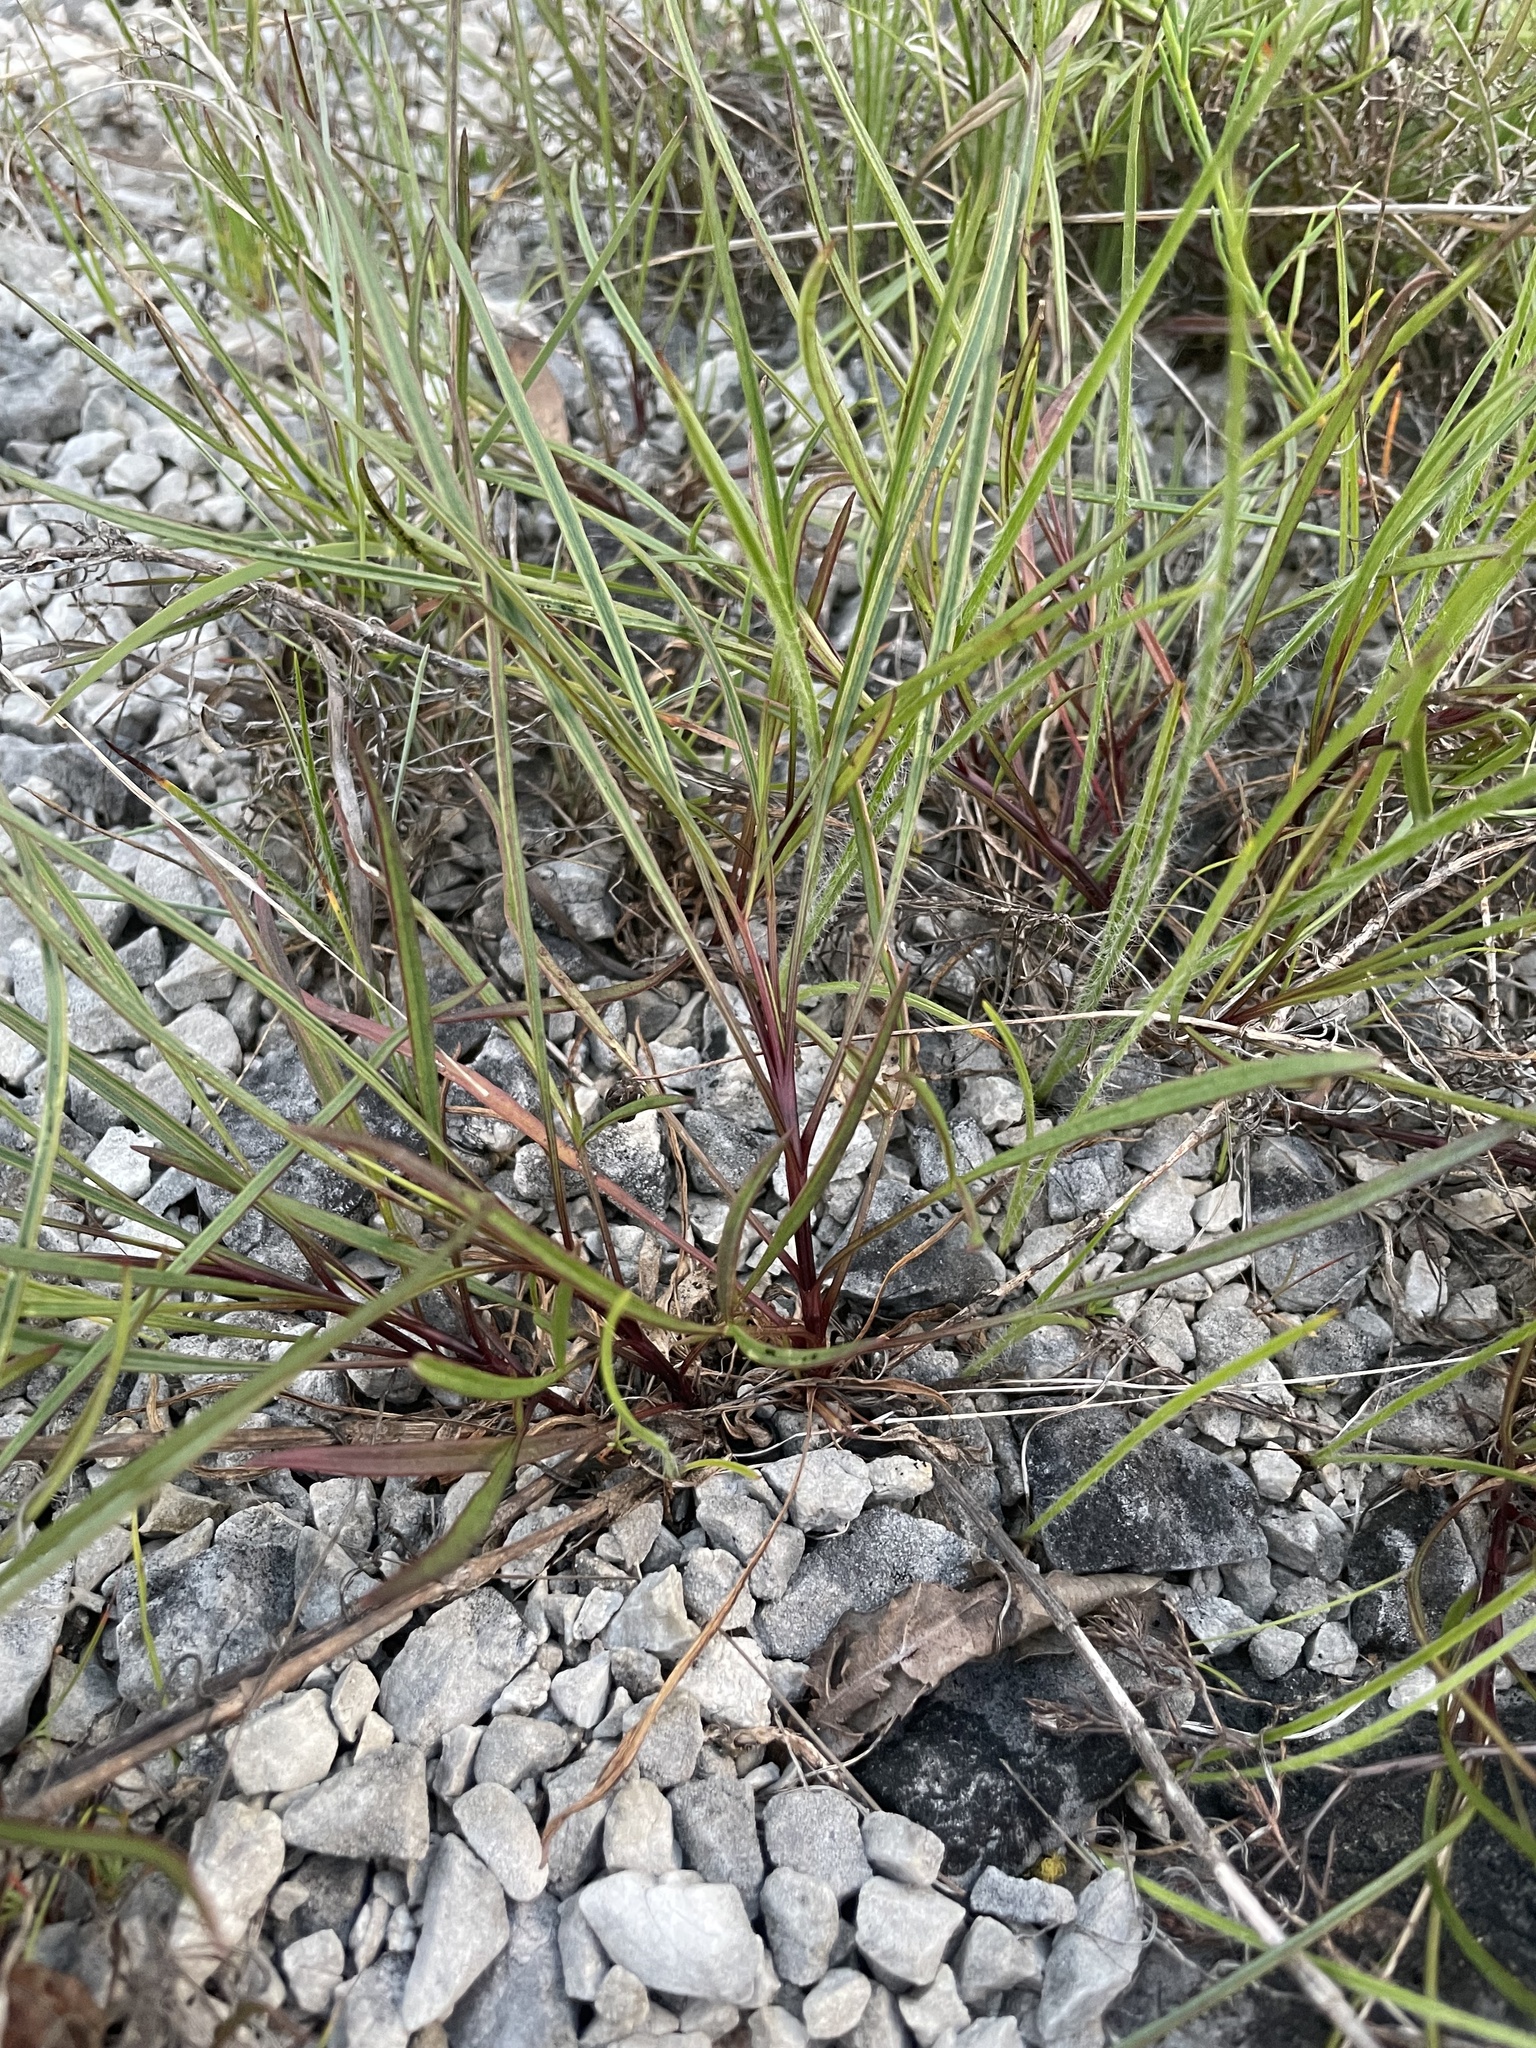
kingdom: Plantae
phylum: Tracheophyta
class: Magnoliopsida
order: Asterales
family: Asteraceae
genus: Coreopsis
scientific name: Coreopsis grandiflora
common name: Large-flowered tickseed
